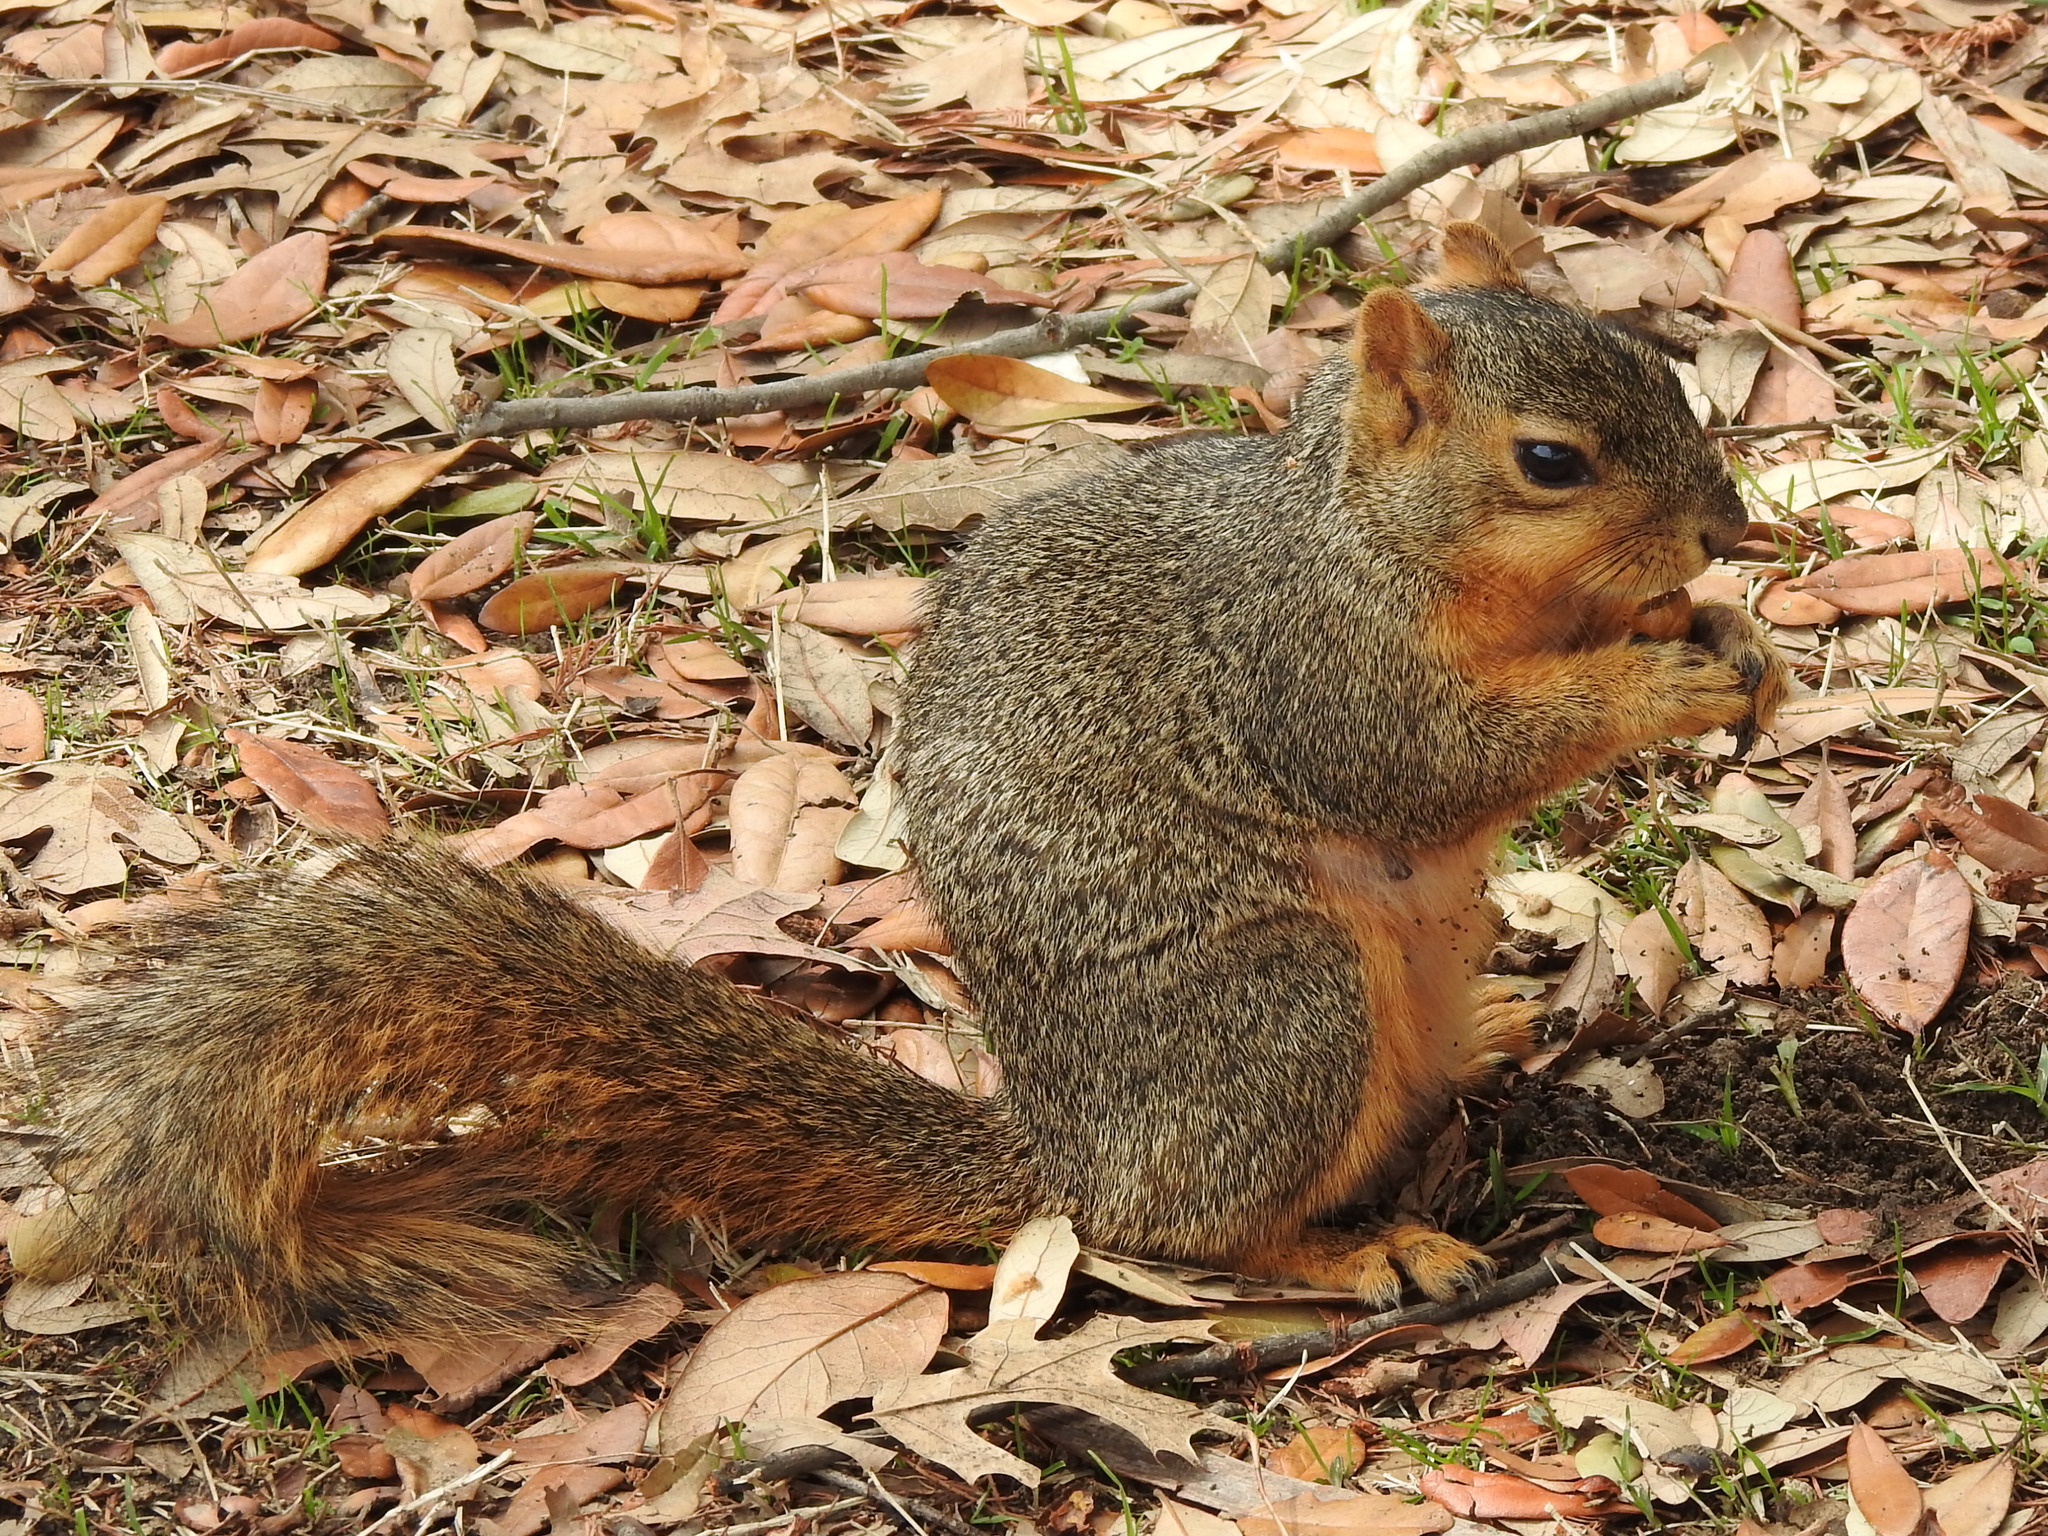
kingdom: Animalia
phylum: Chordata
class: Mammalia
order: Rodentia
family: Sciuridae
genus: Sciurus
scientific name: Sciurus niger
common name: Fox squirrel
